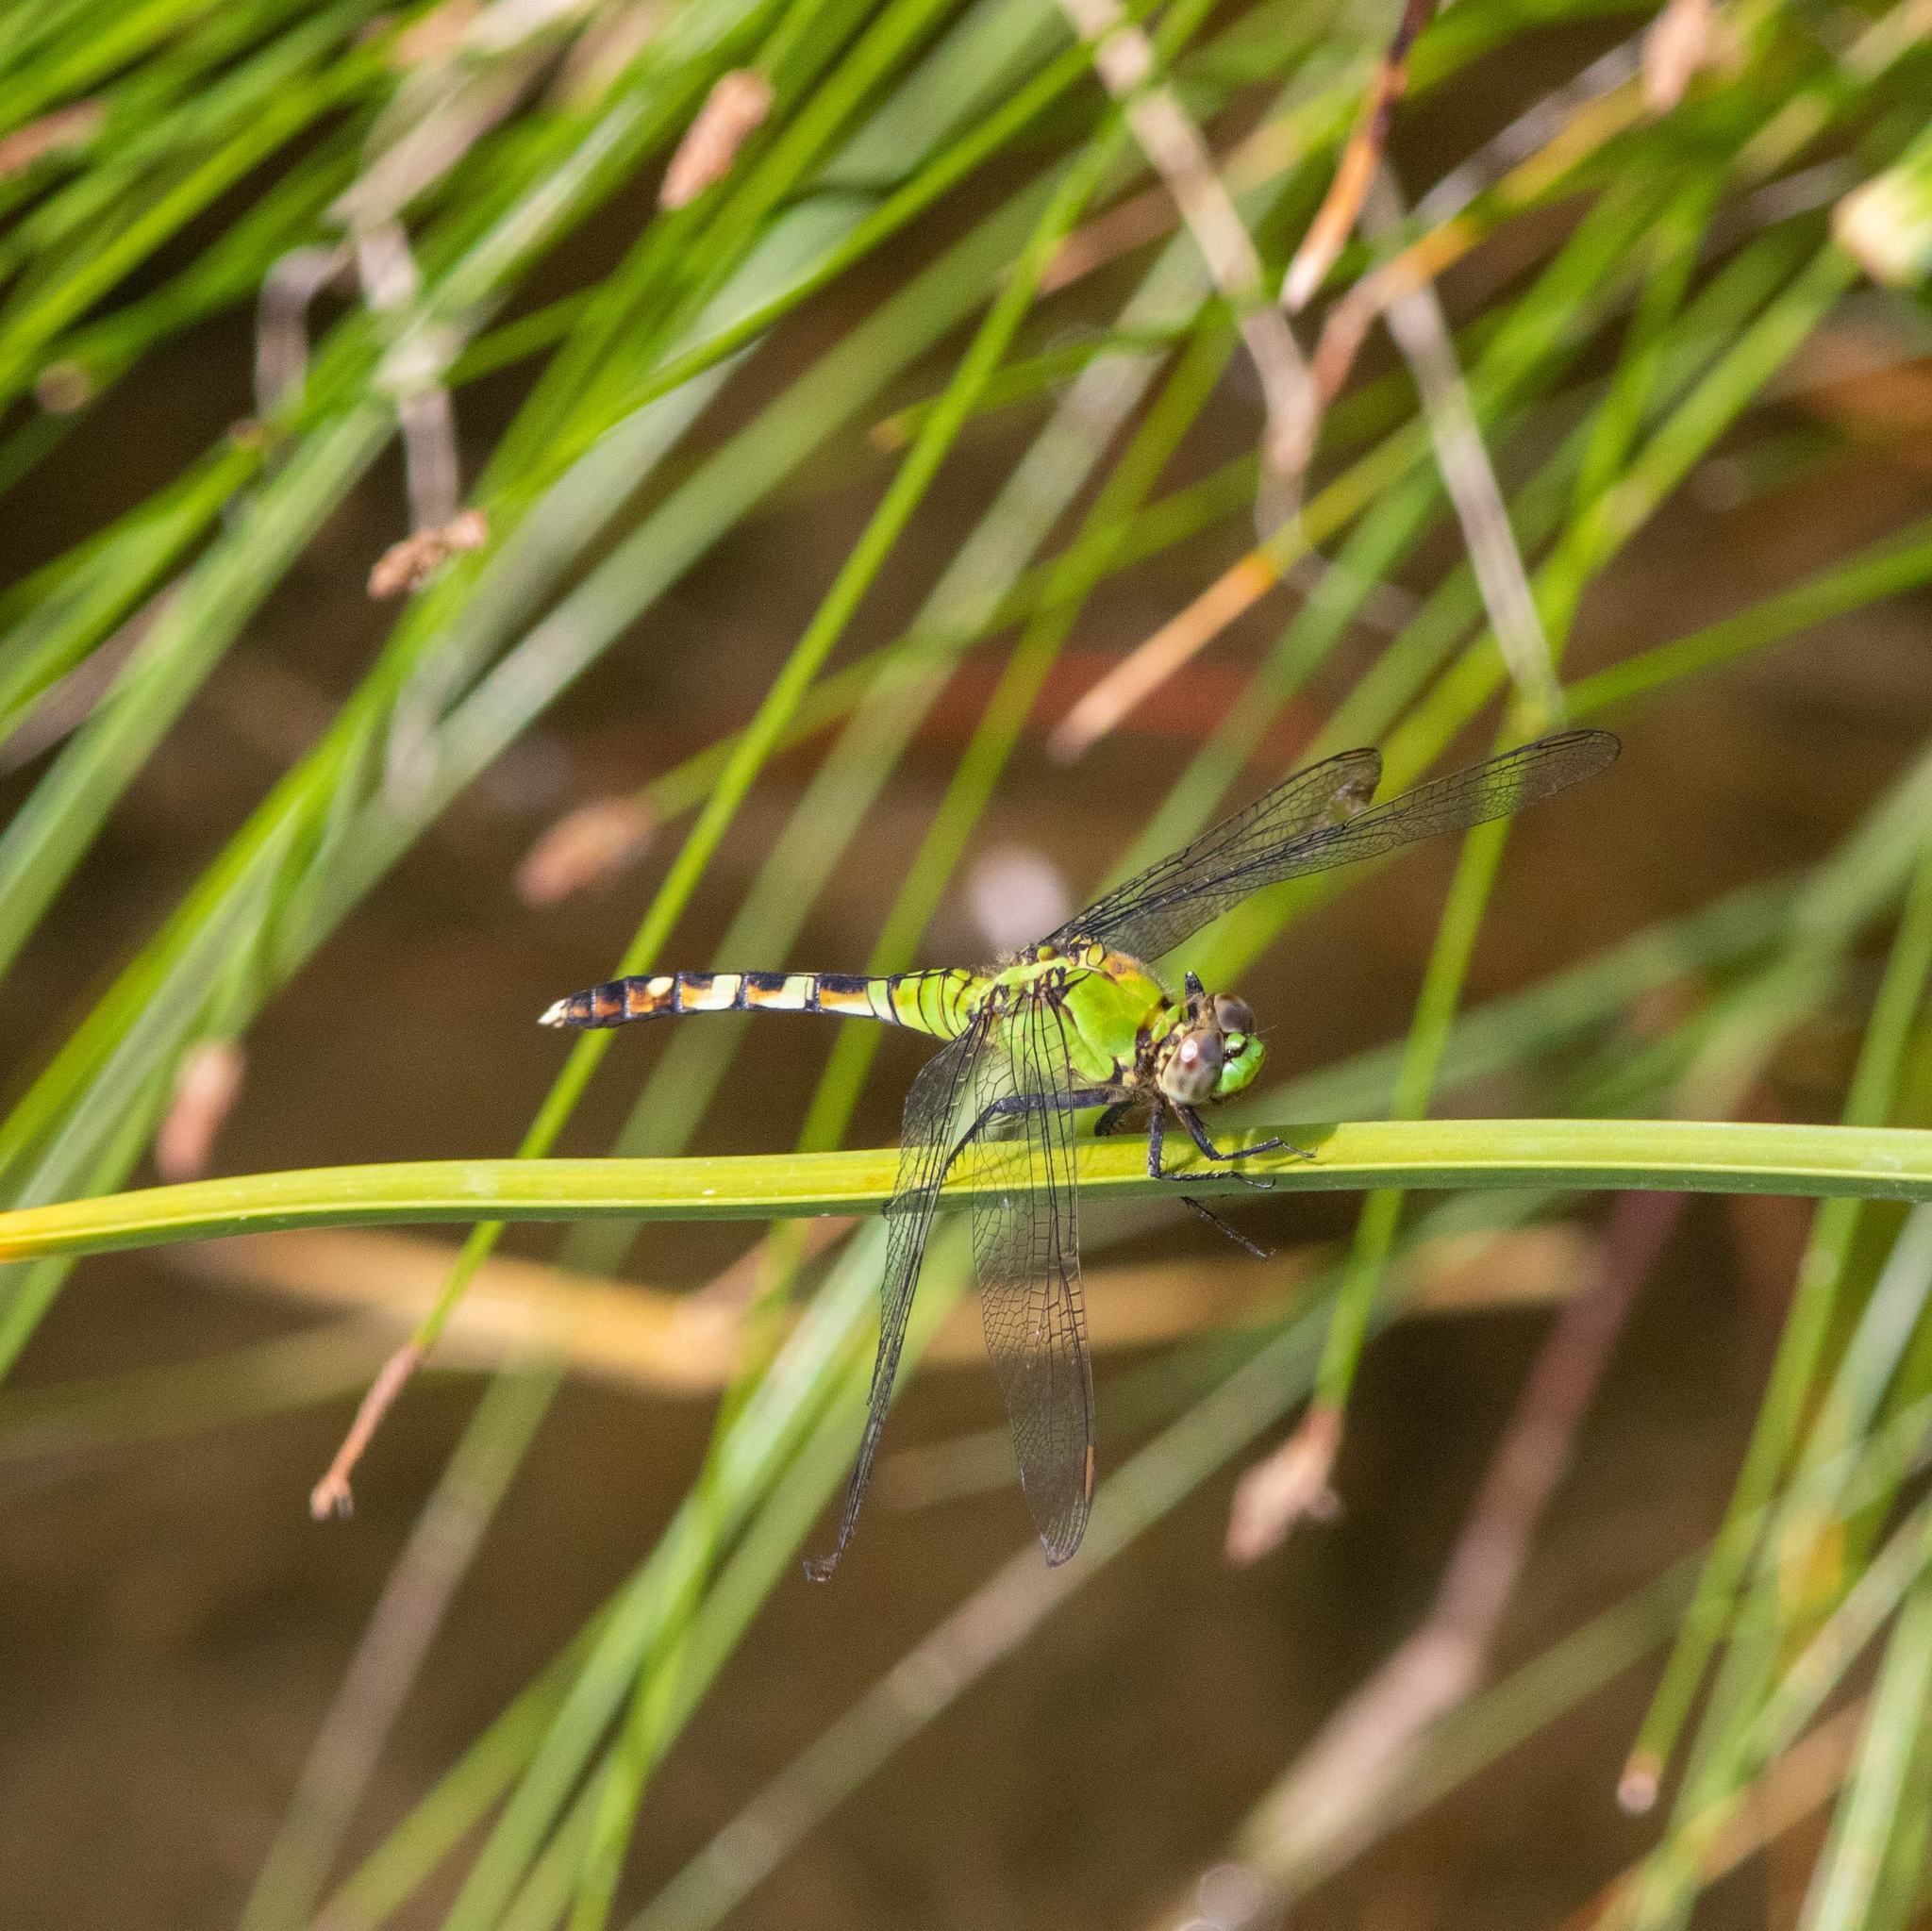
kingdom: Animalia
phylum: Arthropoda
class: Insecta
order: Odonata
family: Libellulidae
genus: Erythemis
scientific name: Erythemis simplicicollis
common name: Eastern pondhawk
